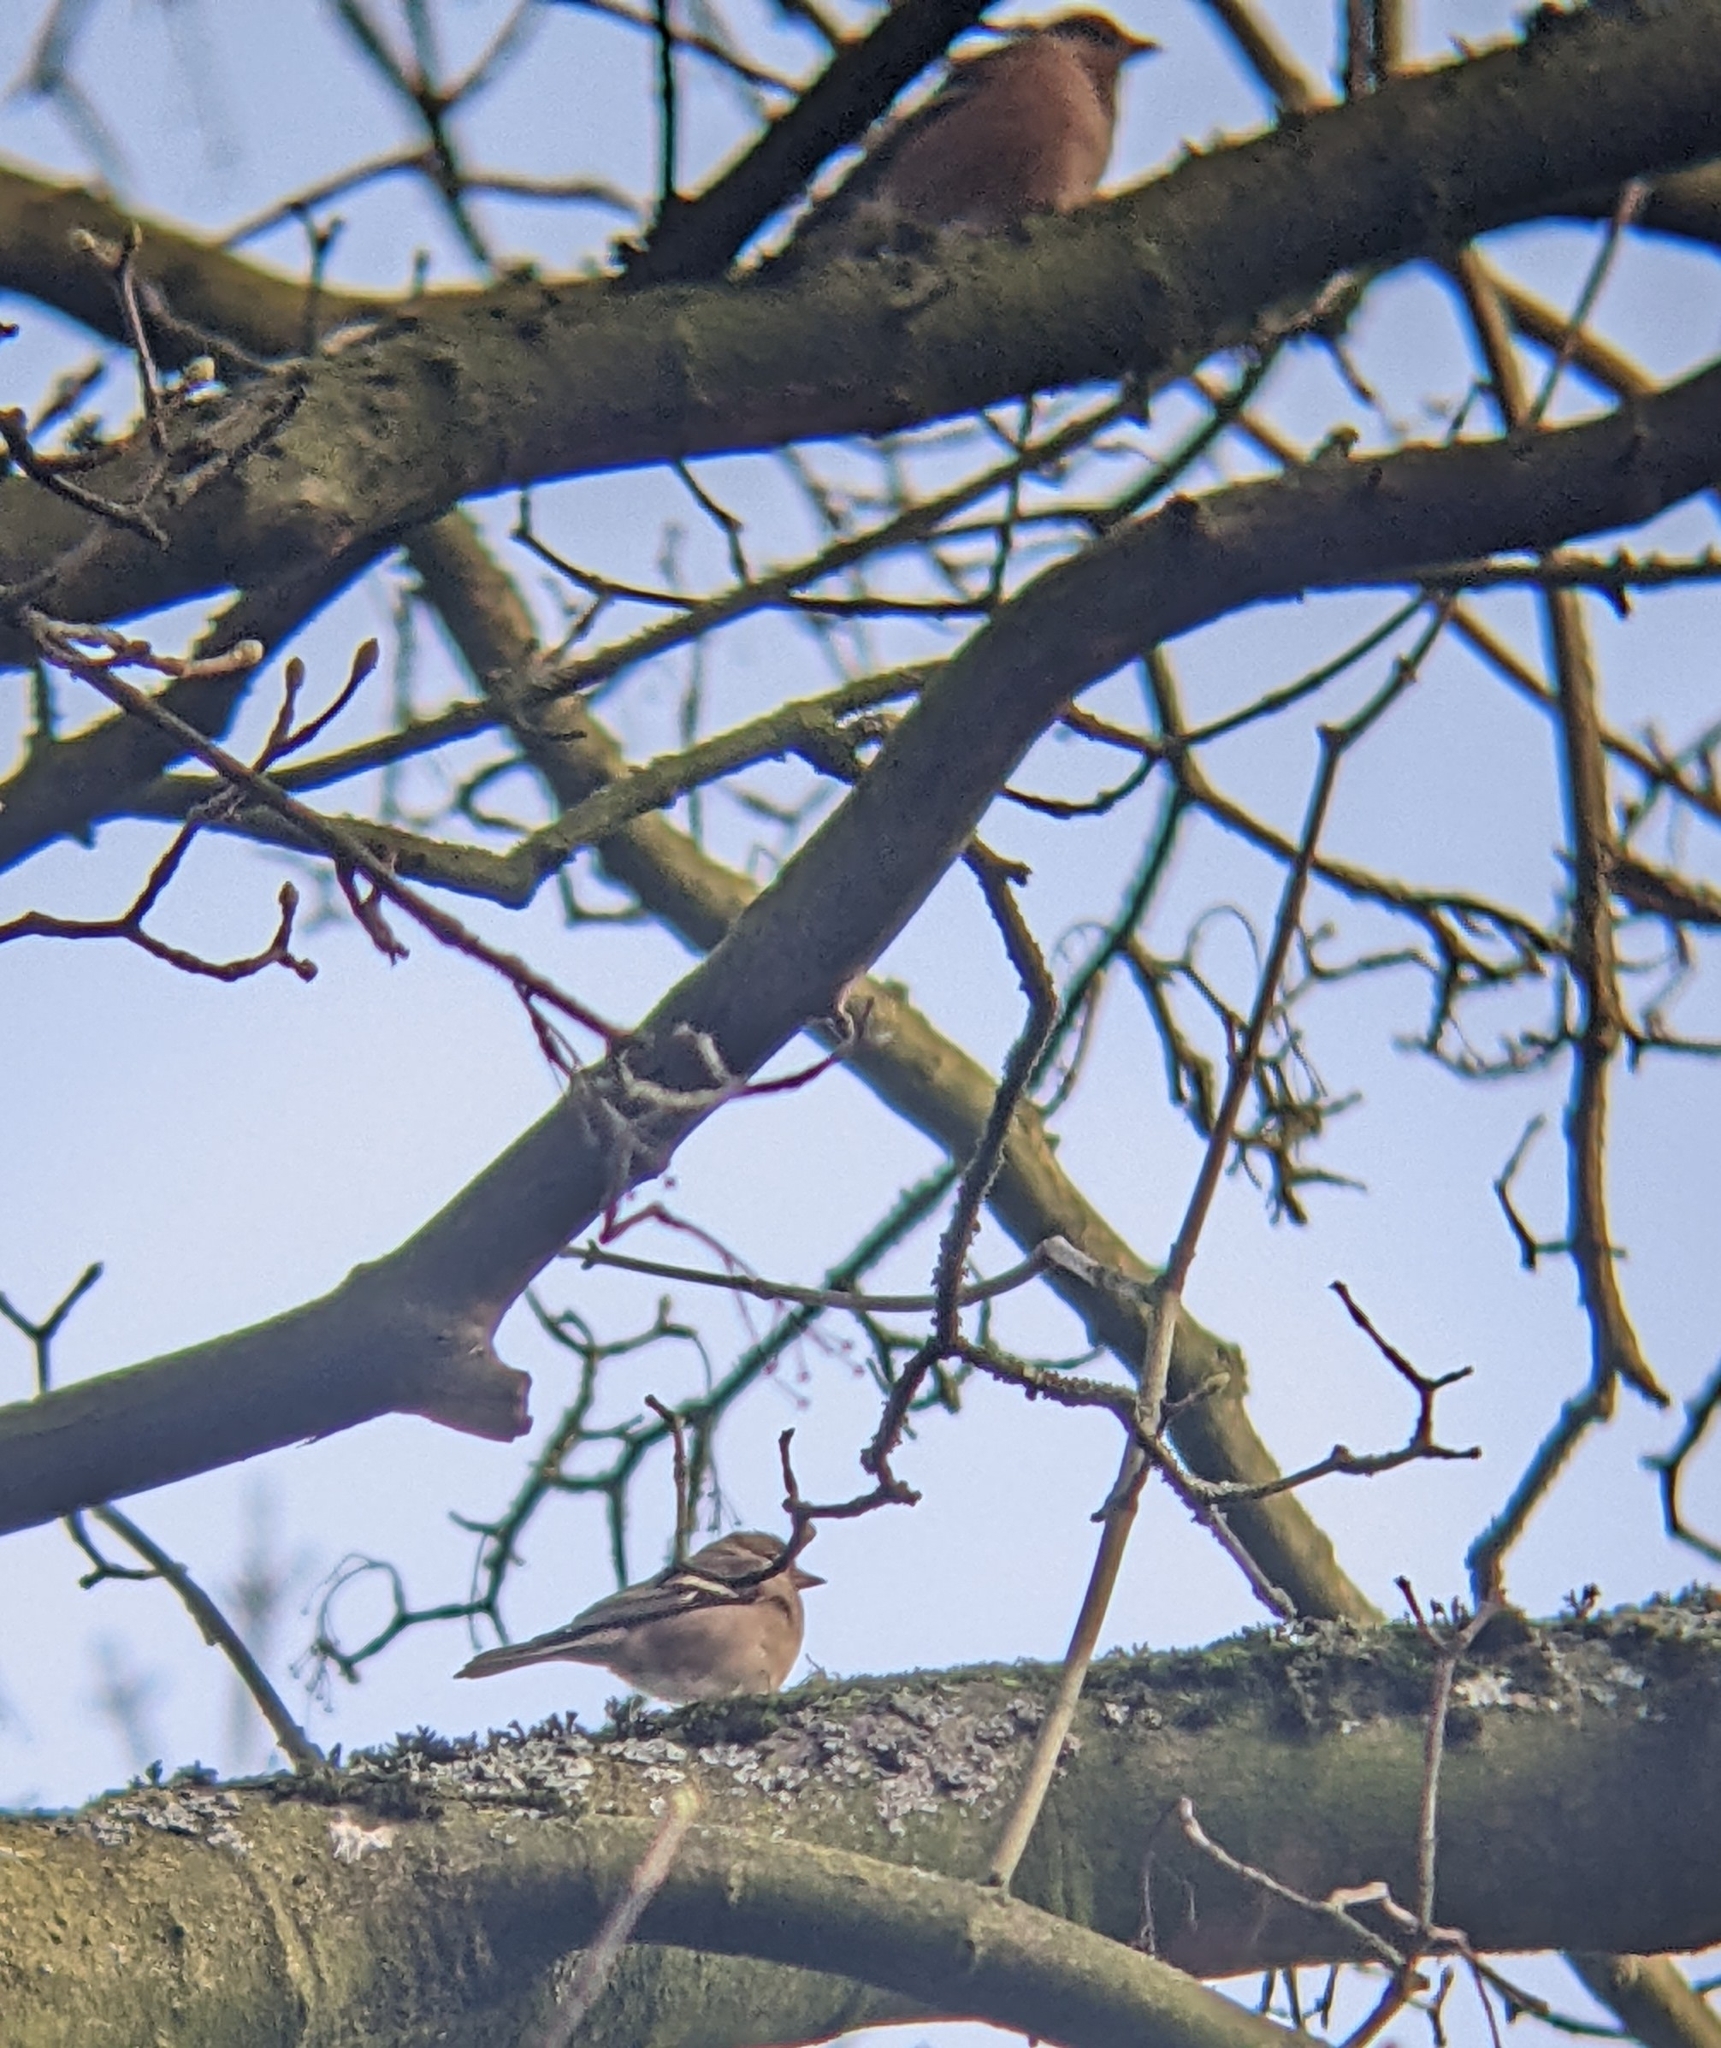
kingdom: Animalia
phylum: Chordata
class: Aves
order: Passeriformes
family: Fringillidae
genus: Fringilla
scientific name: Fringilla coelebs
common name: Common chaffinch
